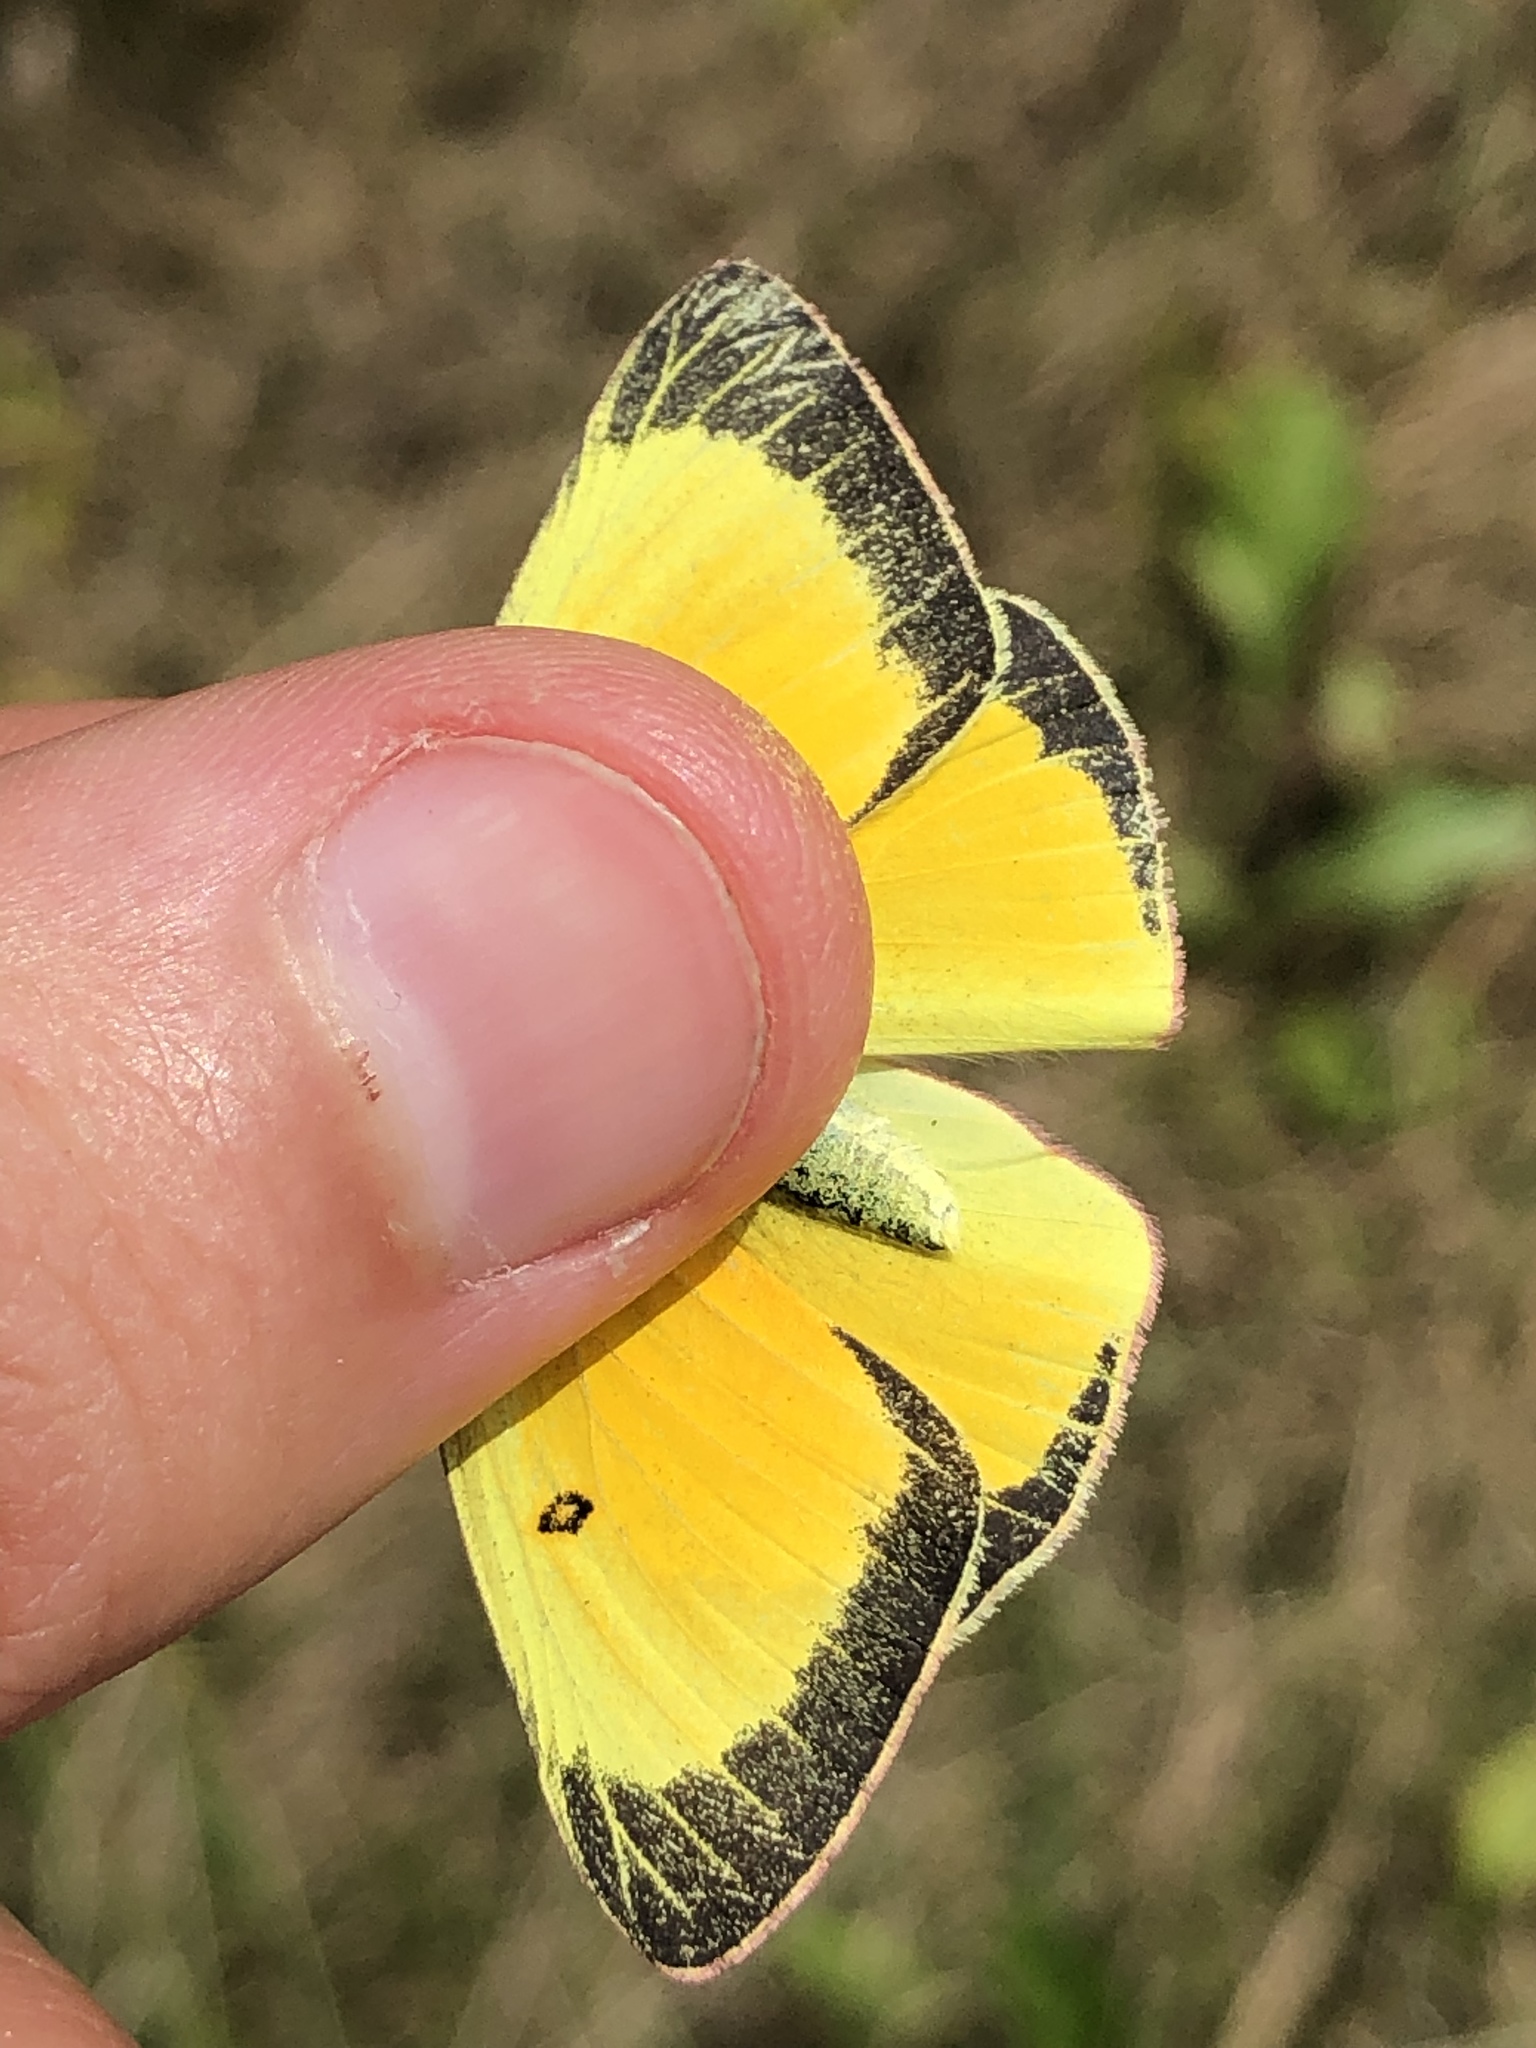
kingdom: Animalia
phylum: Arthropoda
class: Insecta
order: Lepidoptera
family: Pieridae
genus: Colias
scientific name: Colias philodice
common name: Clouded sulphur
